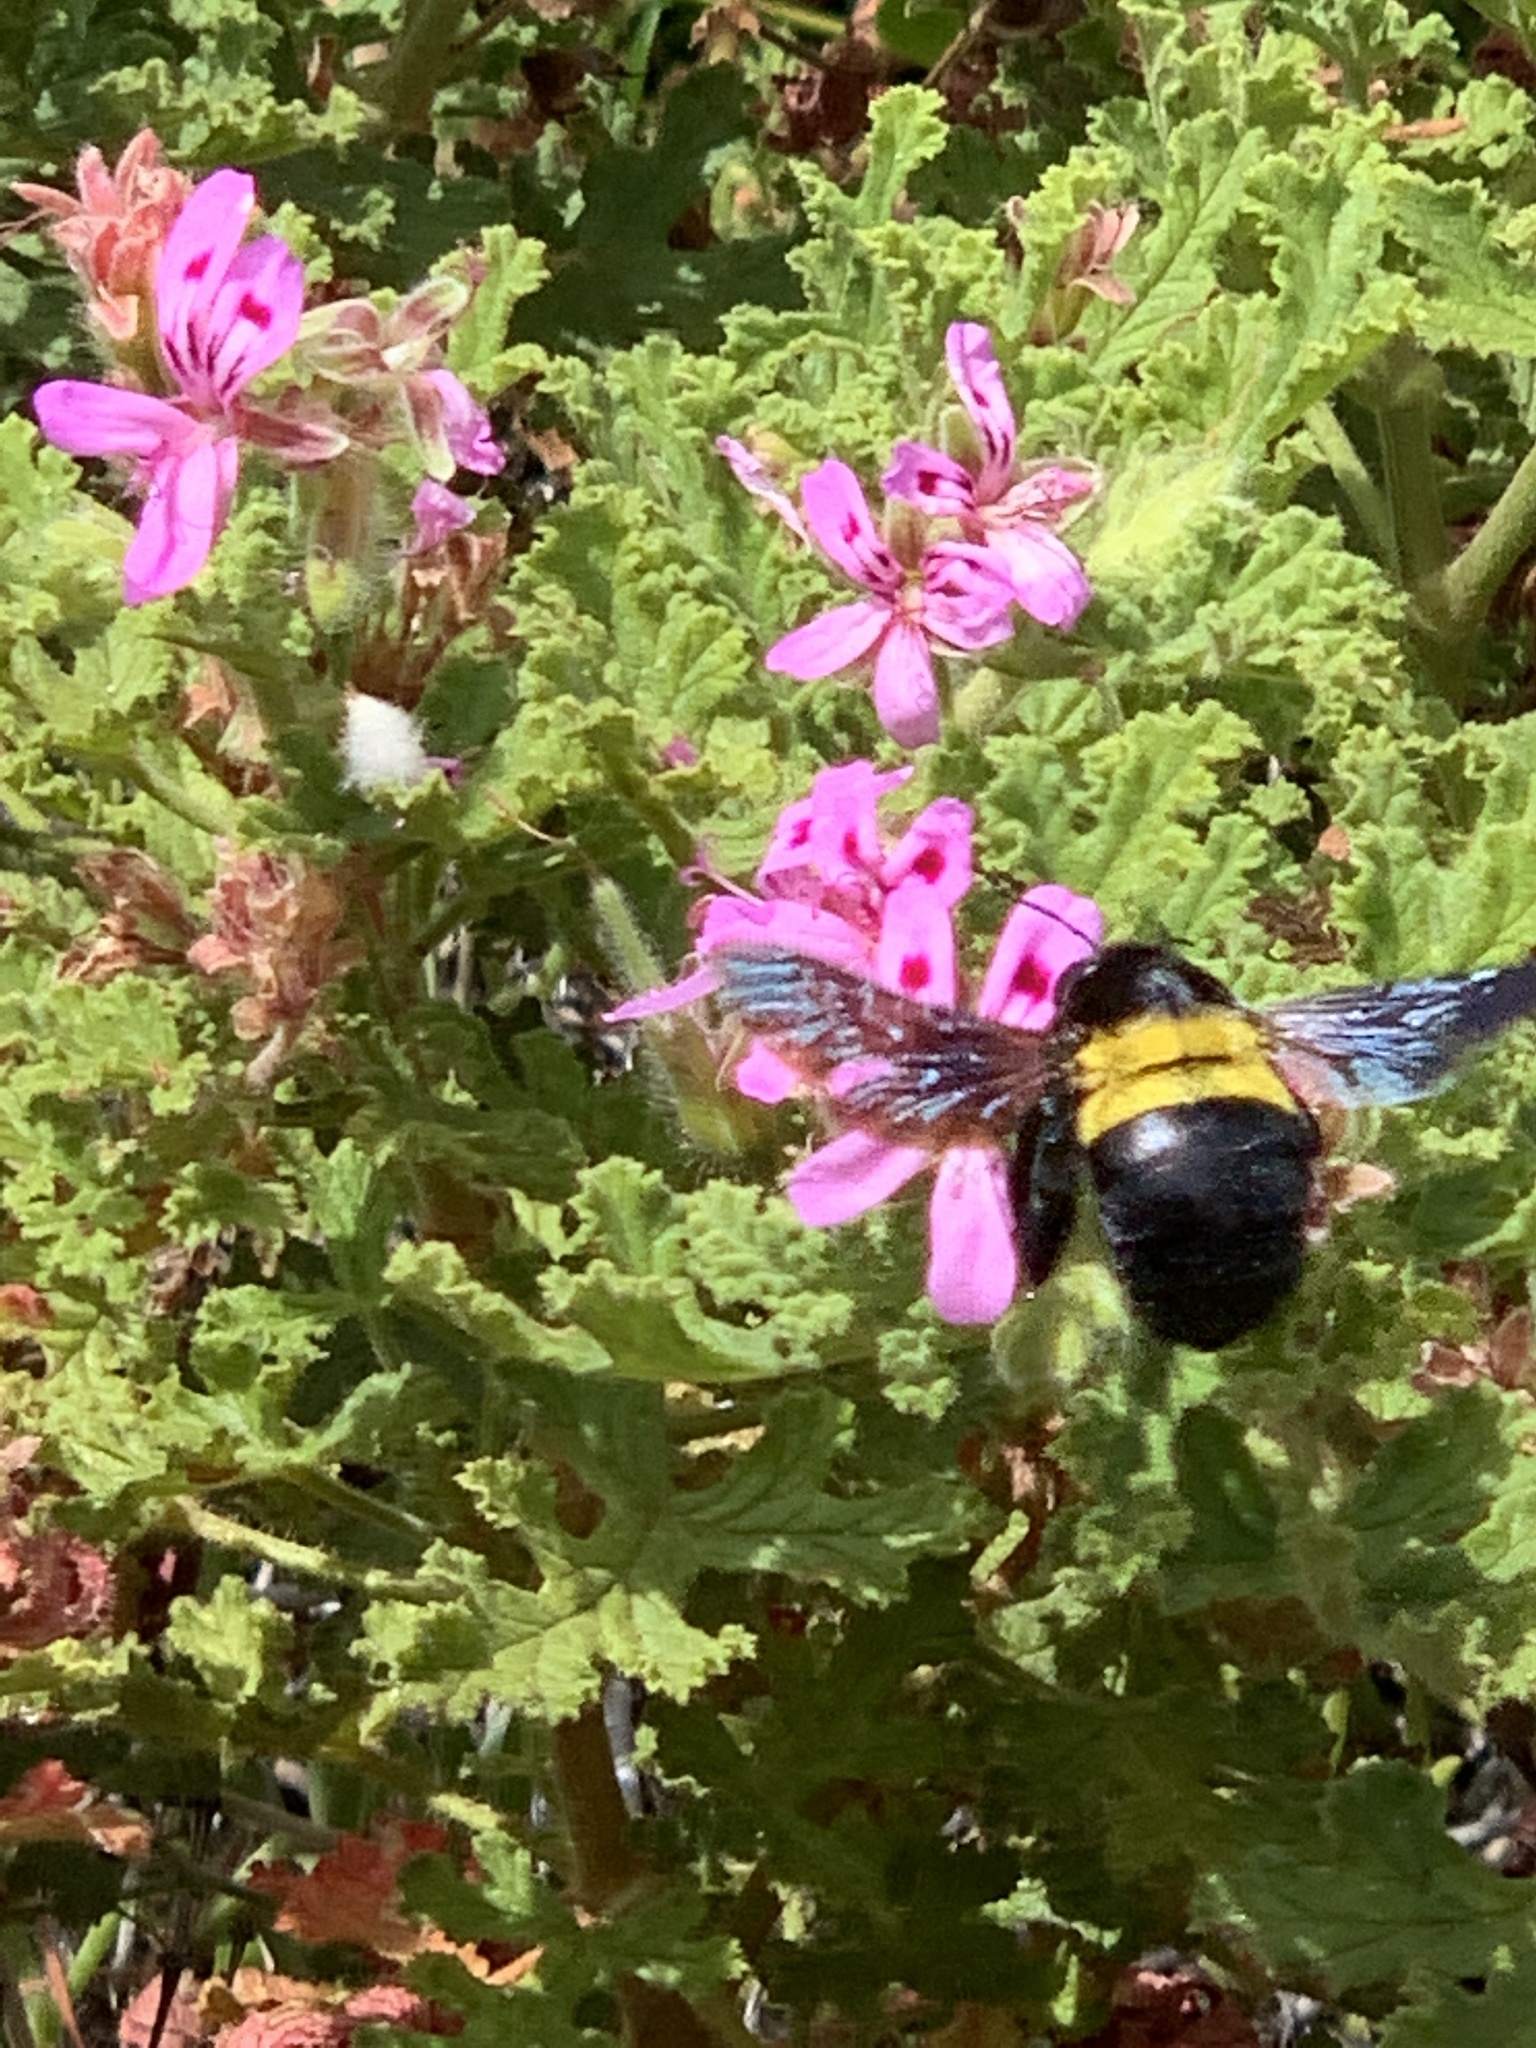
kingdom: Animalia
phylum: Arthropoda
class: Insecta
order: Hymenoptera
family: Apidae
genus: Xylocopa
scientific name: Xylocopa caffra
